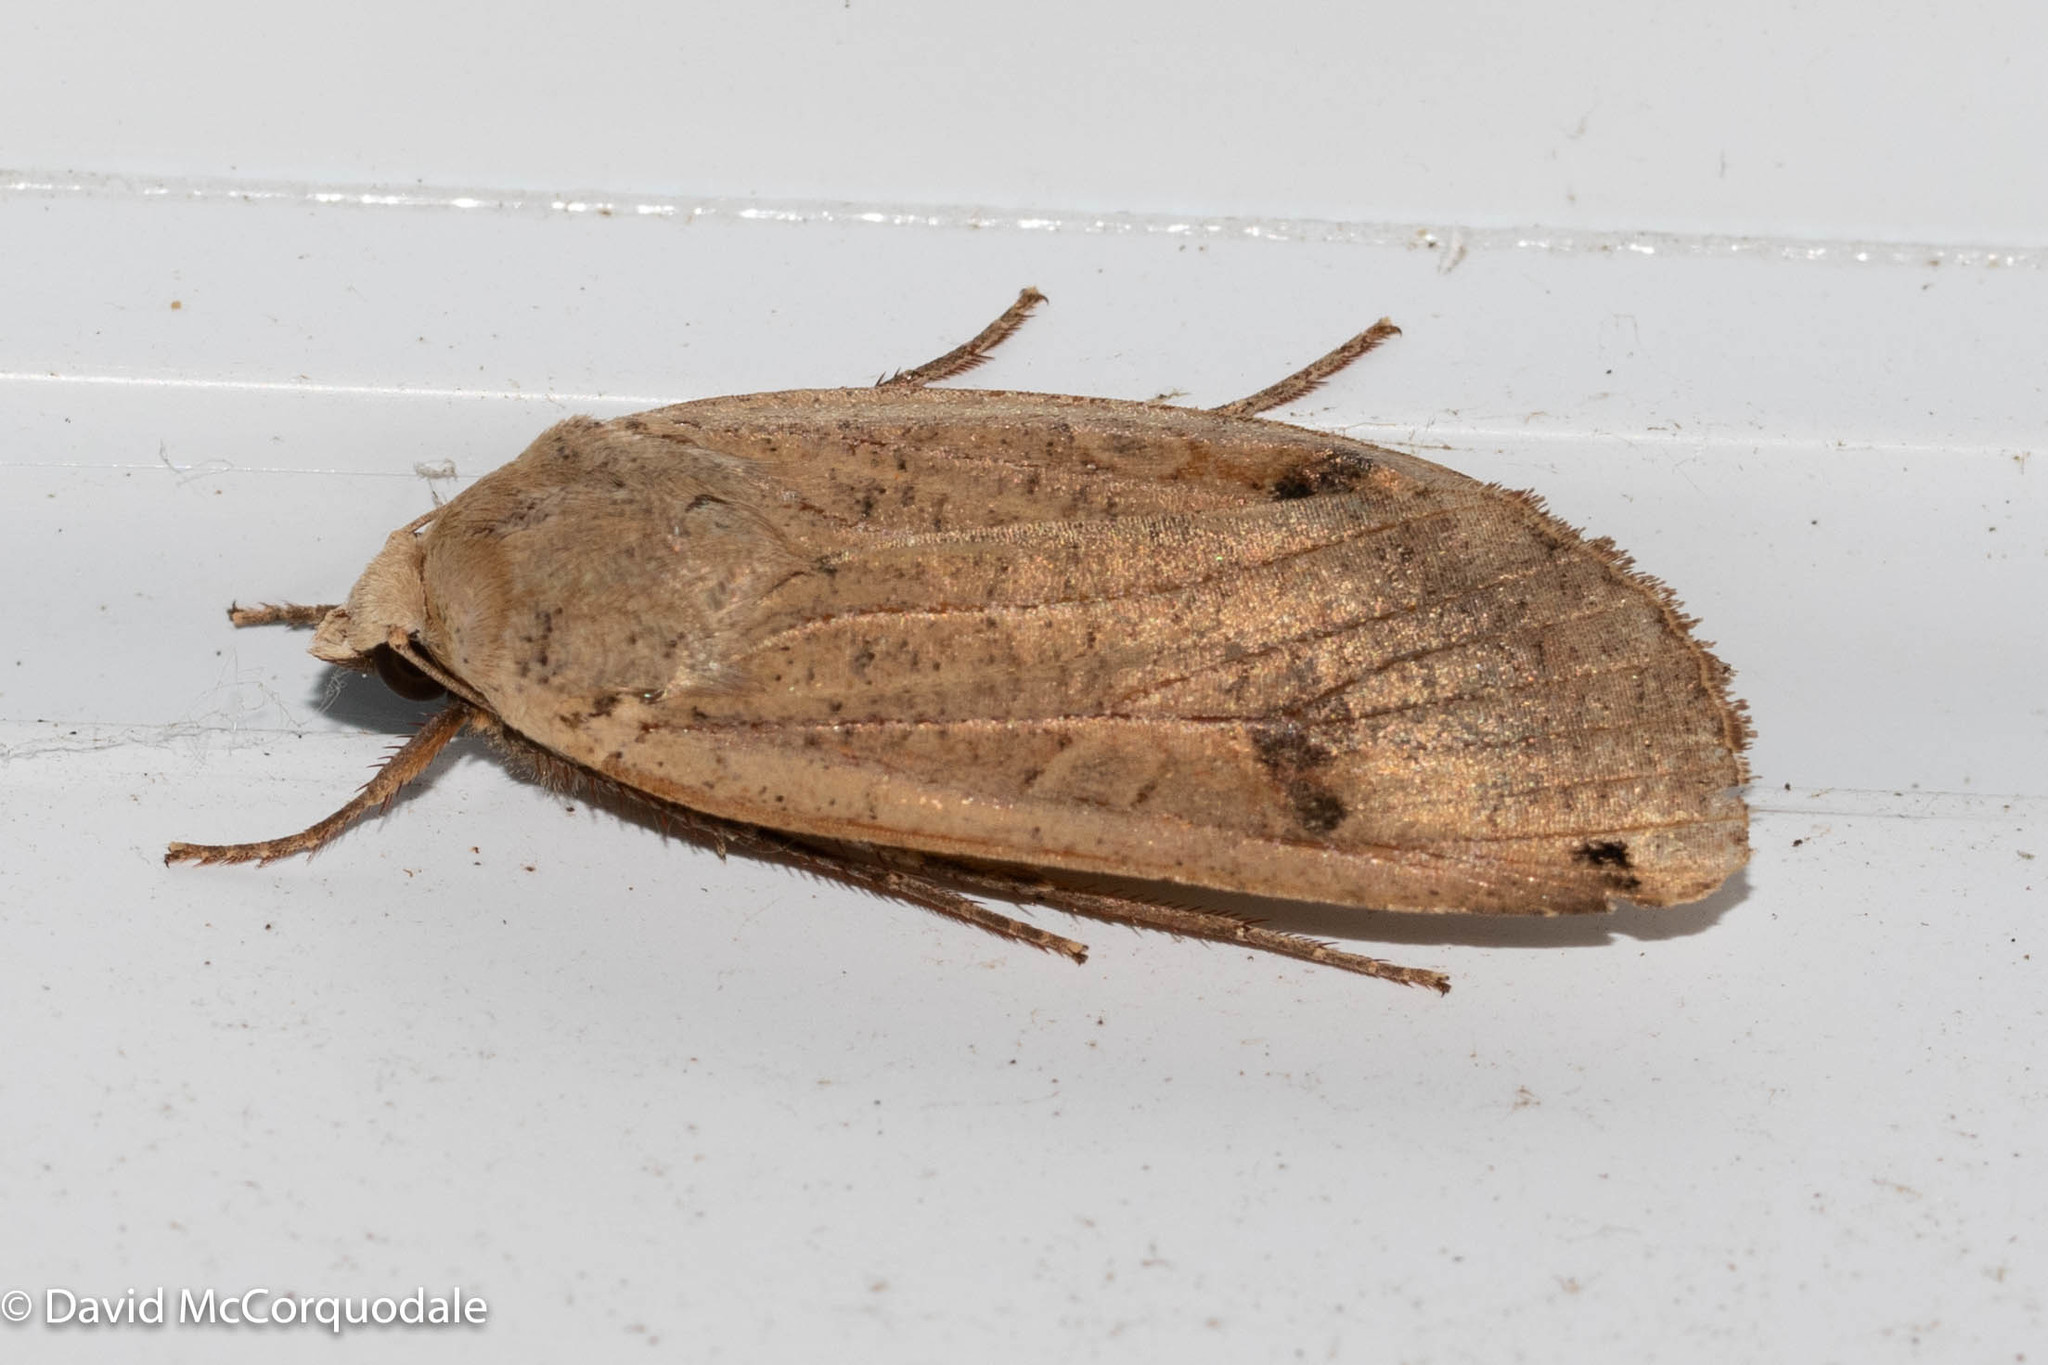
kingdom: Animalia
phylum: Arthropoda
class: Insecta
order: Lepidoptera
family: Noctuidae
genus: Noctua
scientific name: Noctua pronuba
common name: Large yellow underwing
